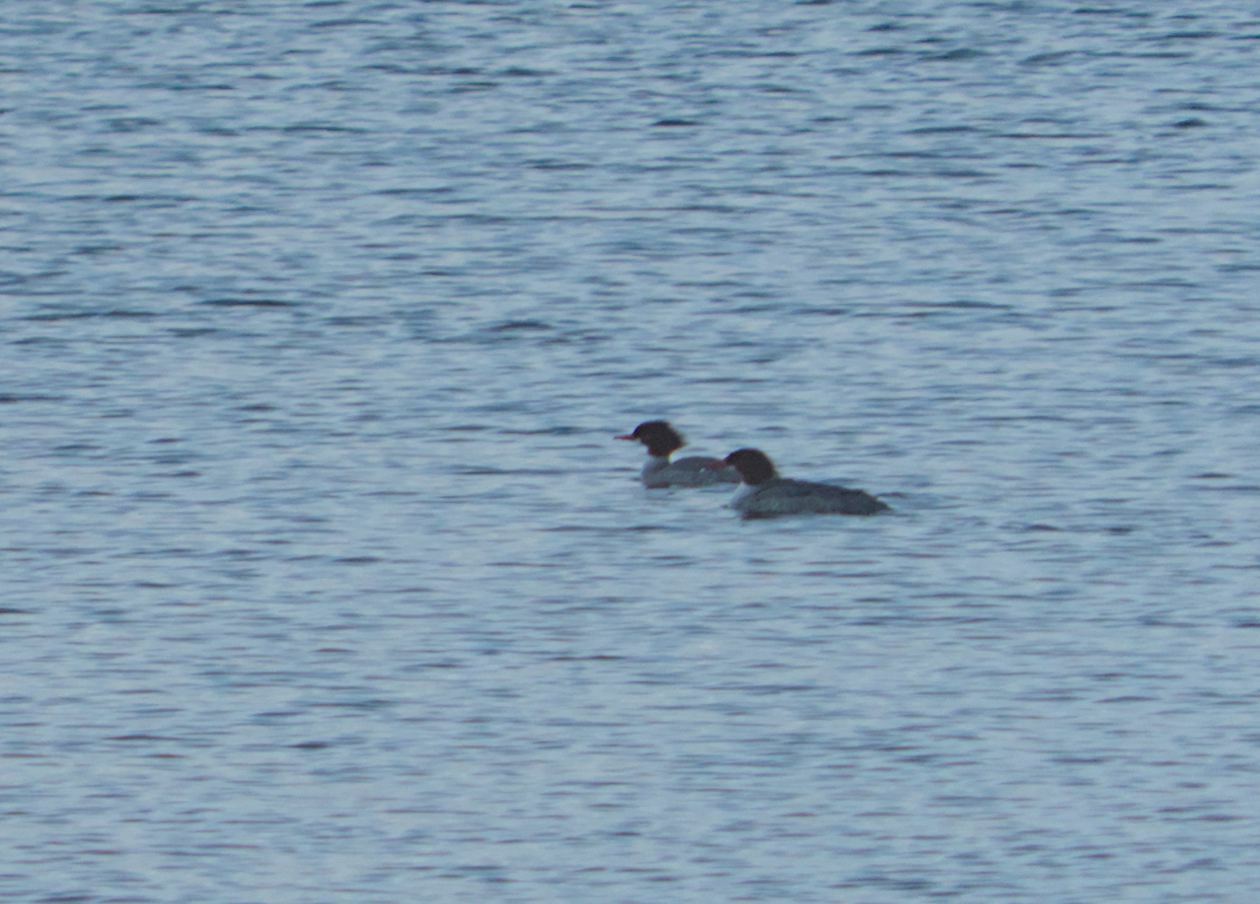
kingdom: Animalia
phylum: Chordata
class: Aves
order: Anseriformes
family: Anatidae
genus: Mergus
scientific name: Mergus serrator
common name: Red-breasted merganser
